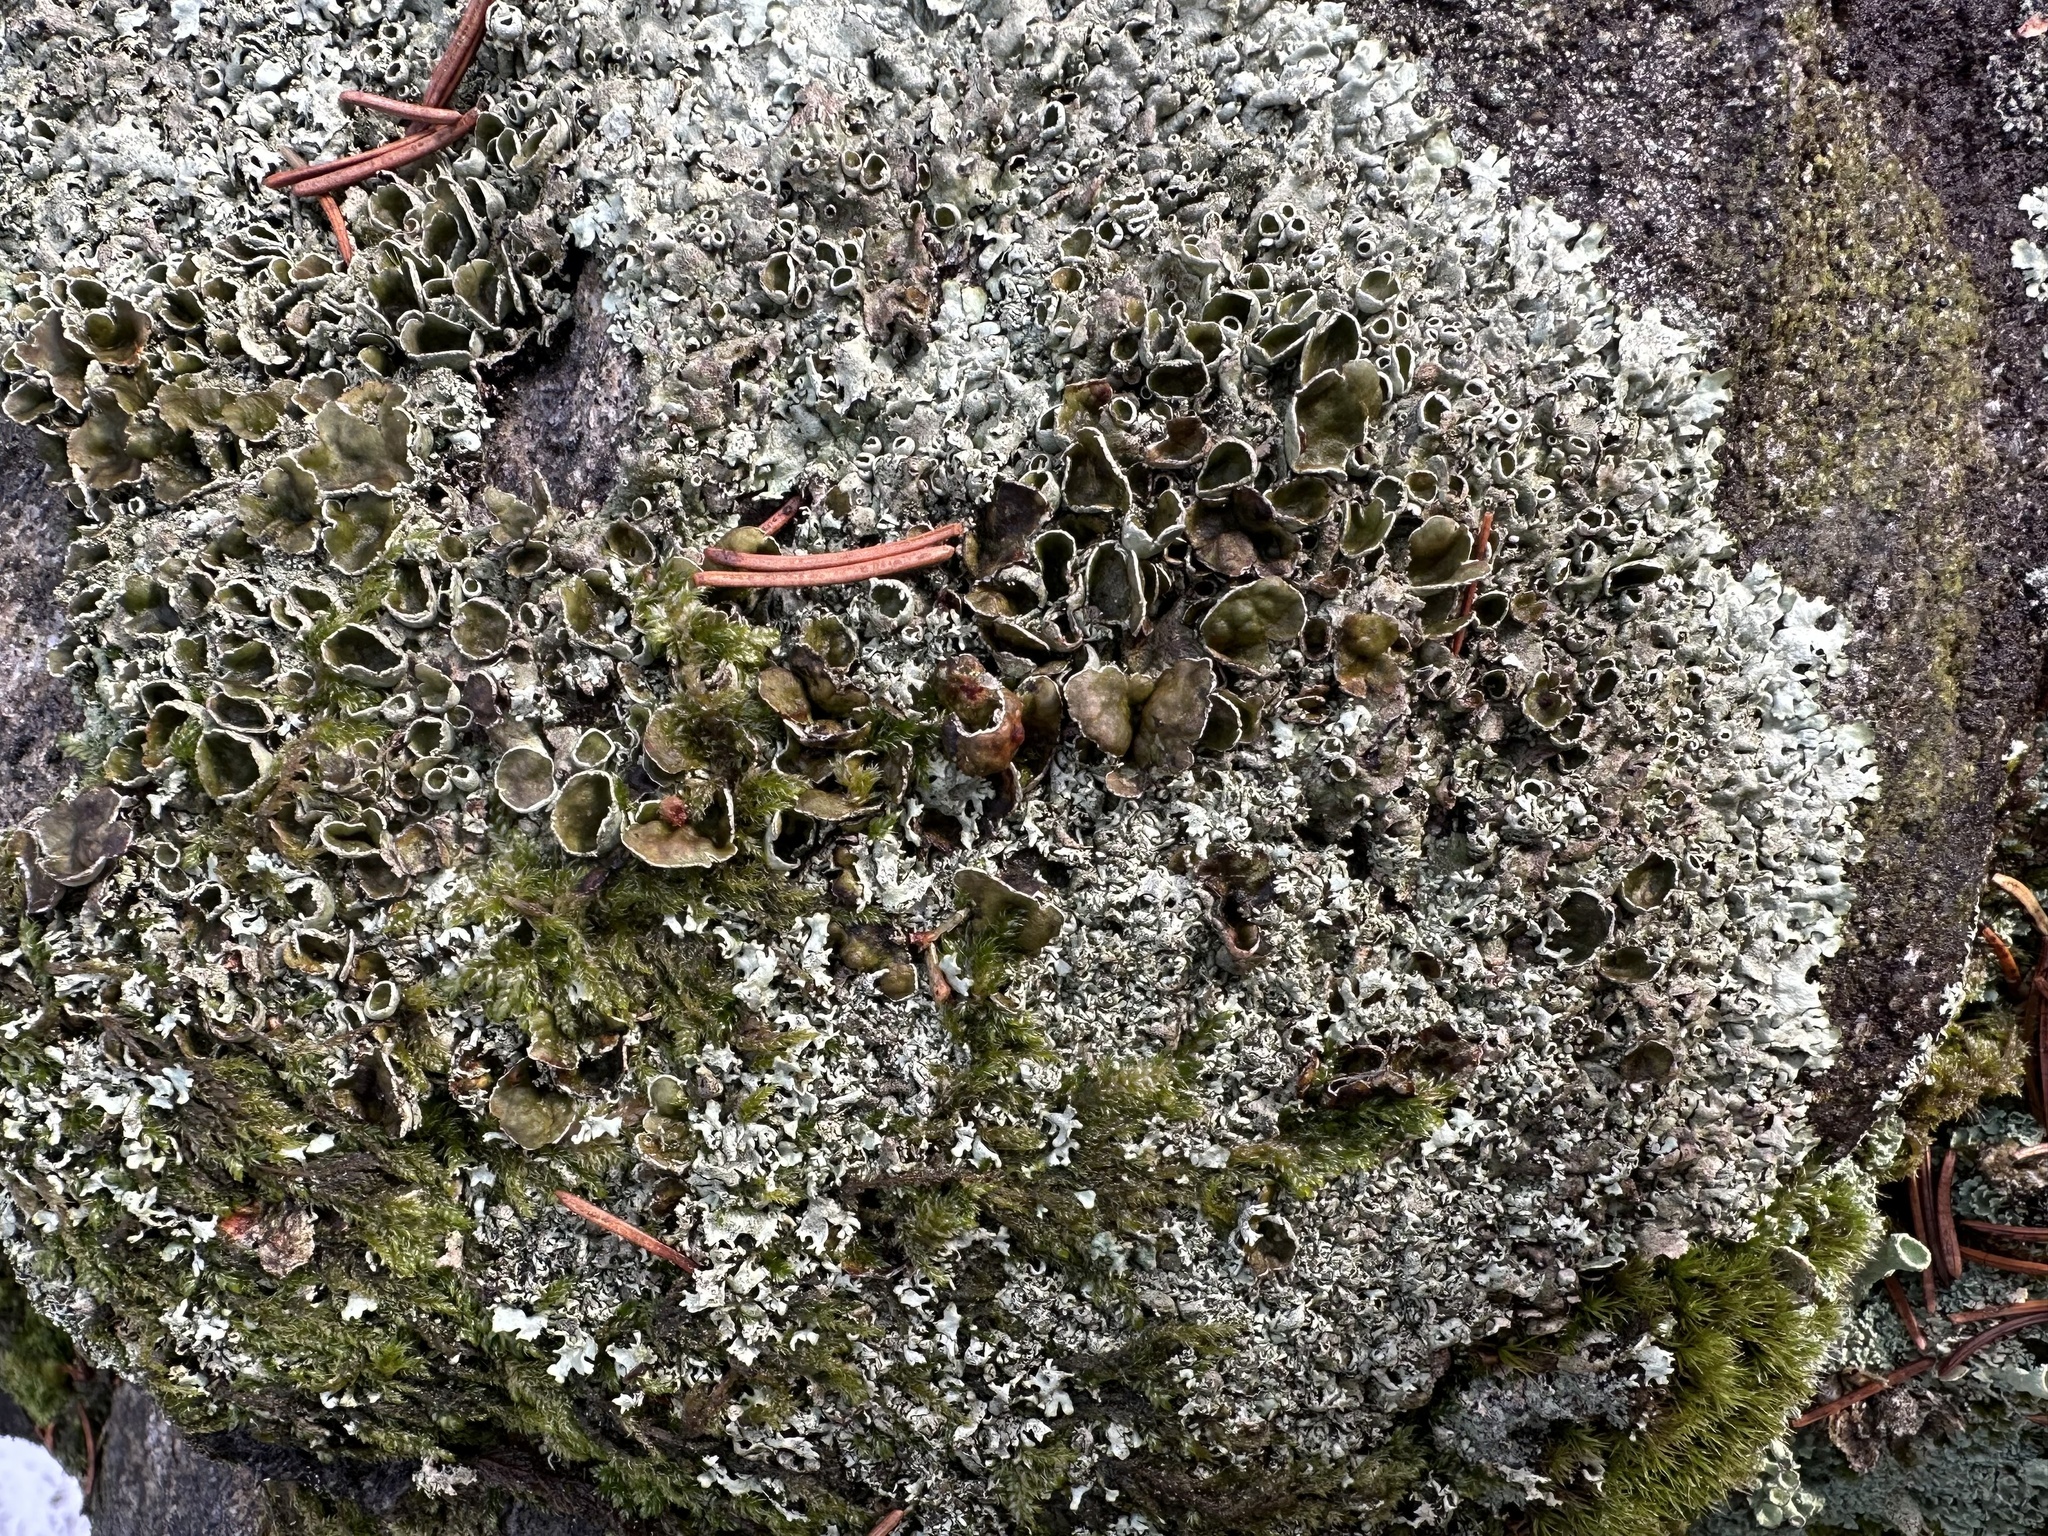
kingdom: Fungi
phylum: Ascomycota
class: Lecanoromycetes
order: Lecanorales
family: Parmeliaceae
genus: Xanthoparmelia
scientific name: Xanthoparmelia conspersa
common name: Peppered rock shield
